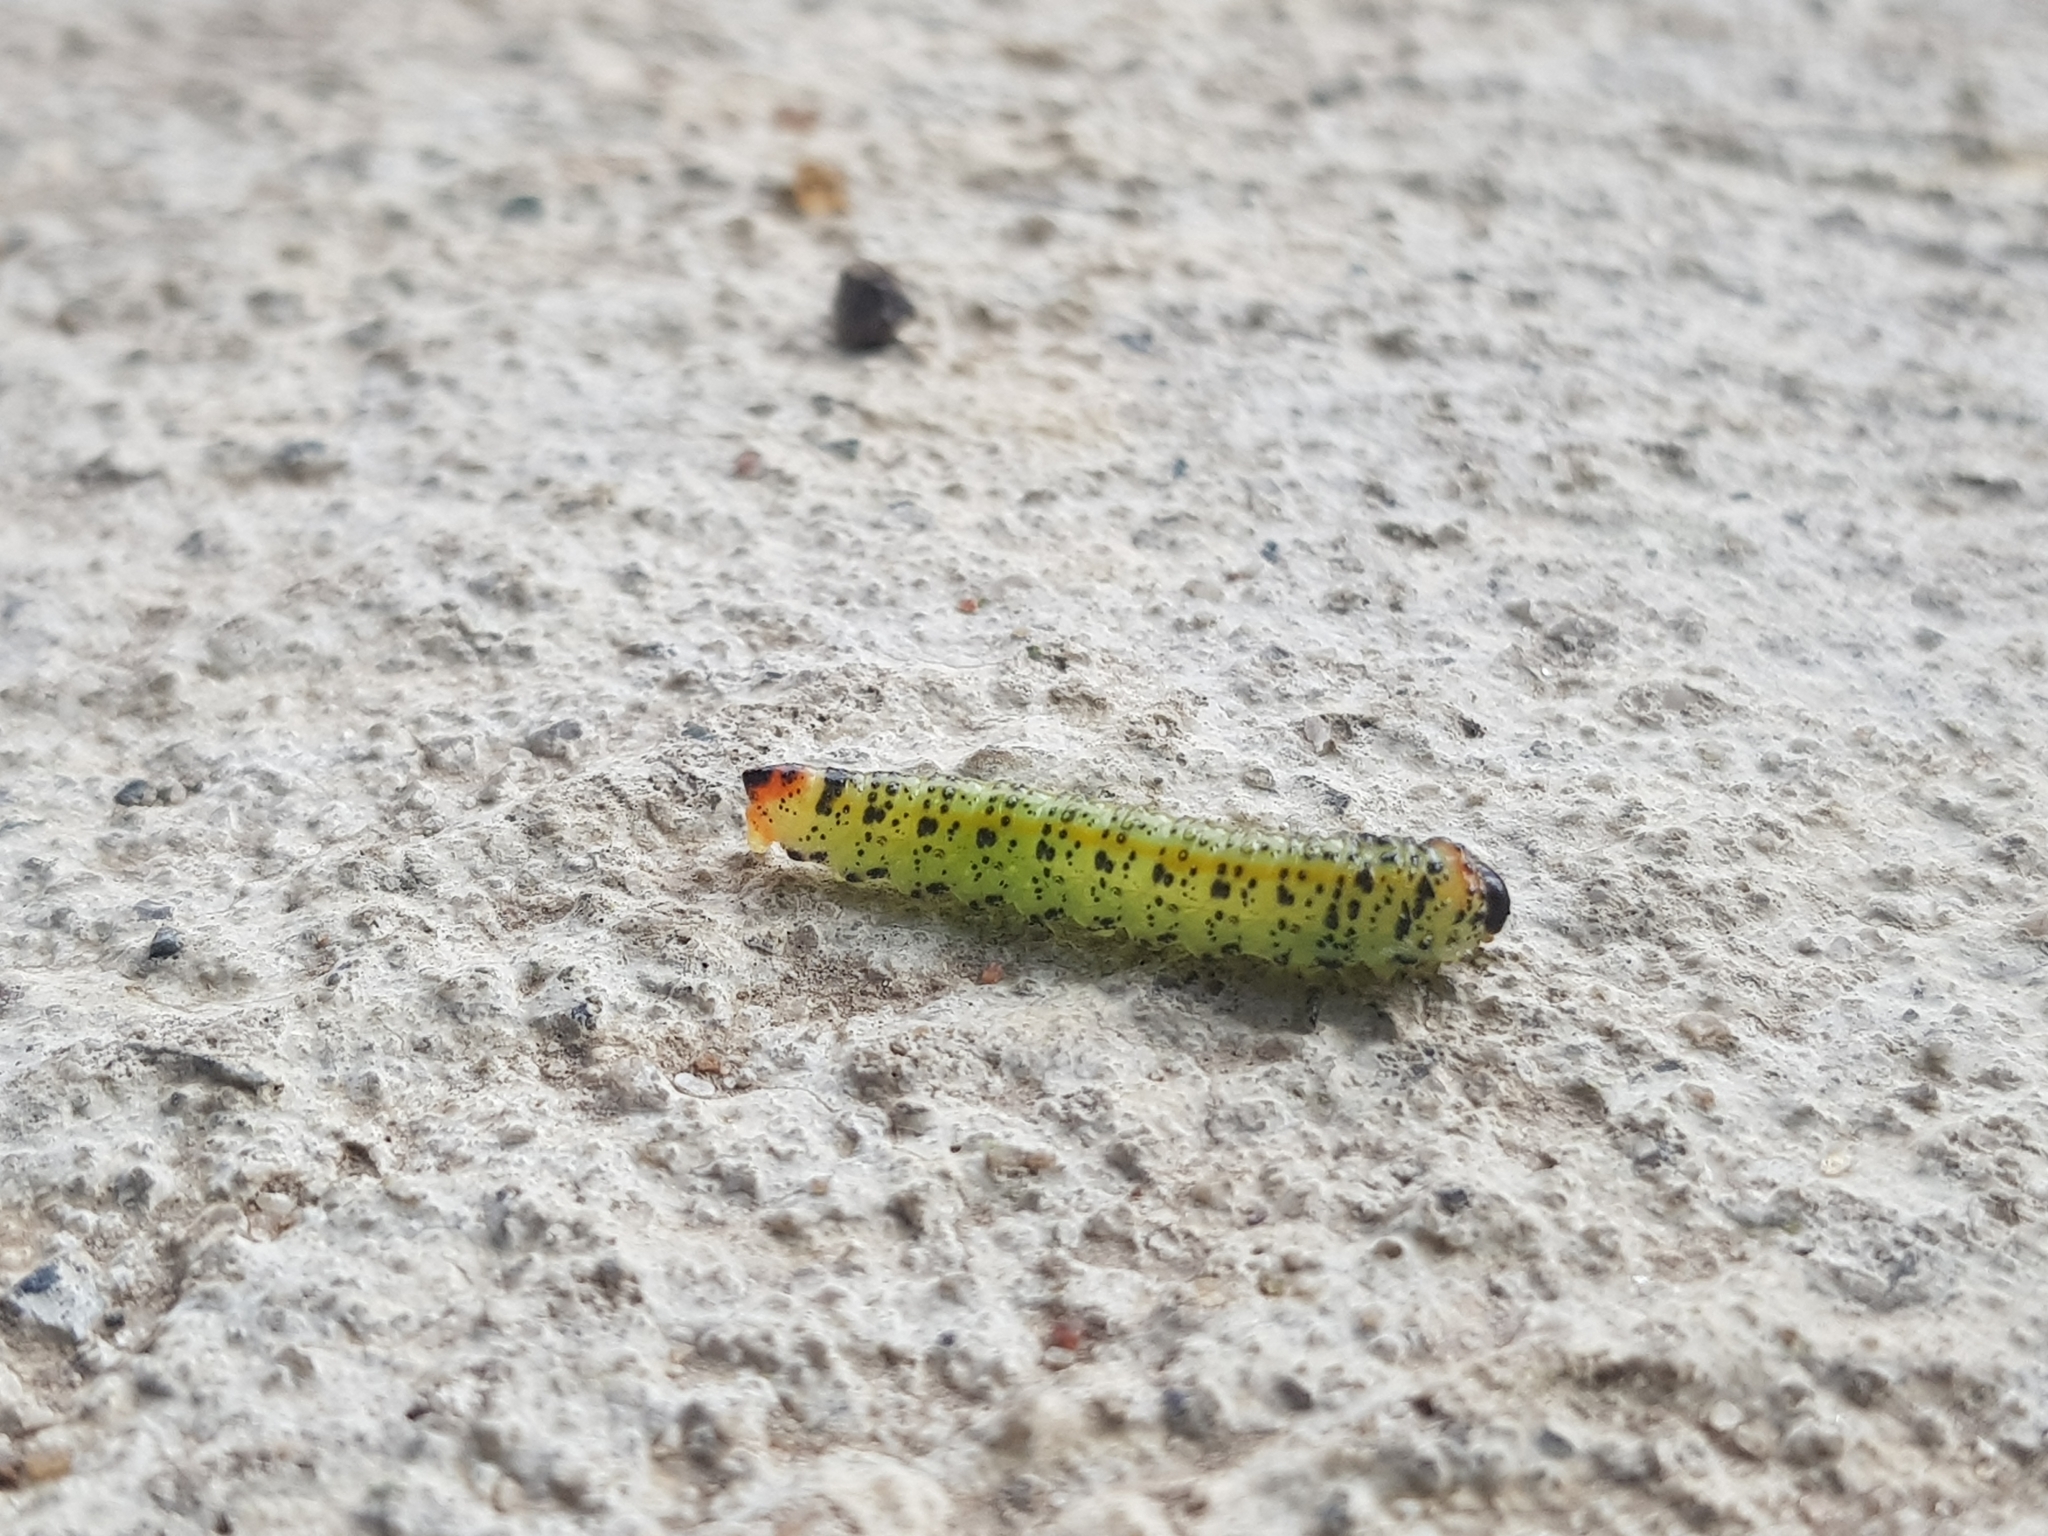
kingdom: Animalia
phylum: Arthropoda
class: Insecta
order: Hymenoptera
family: Pergidae
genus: Lophyrotoma
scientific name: Lophyrotoma analis
